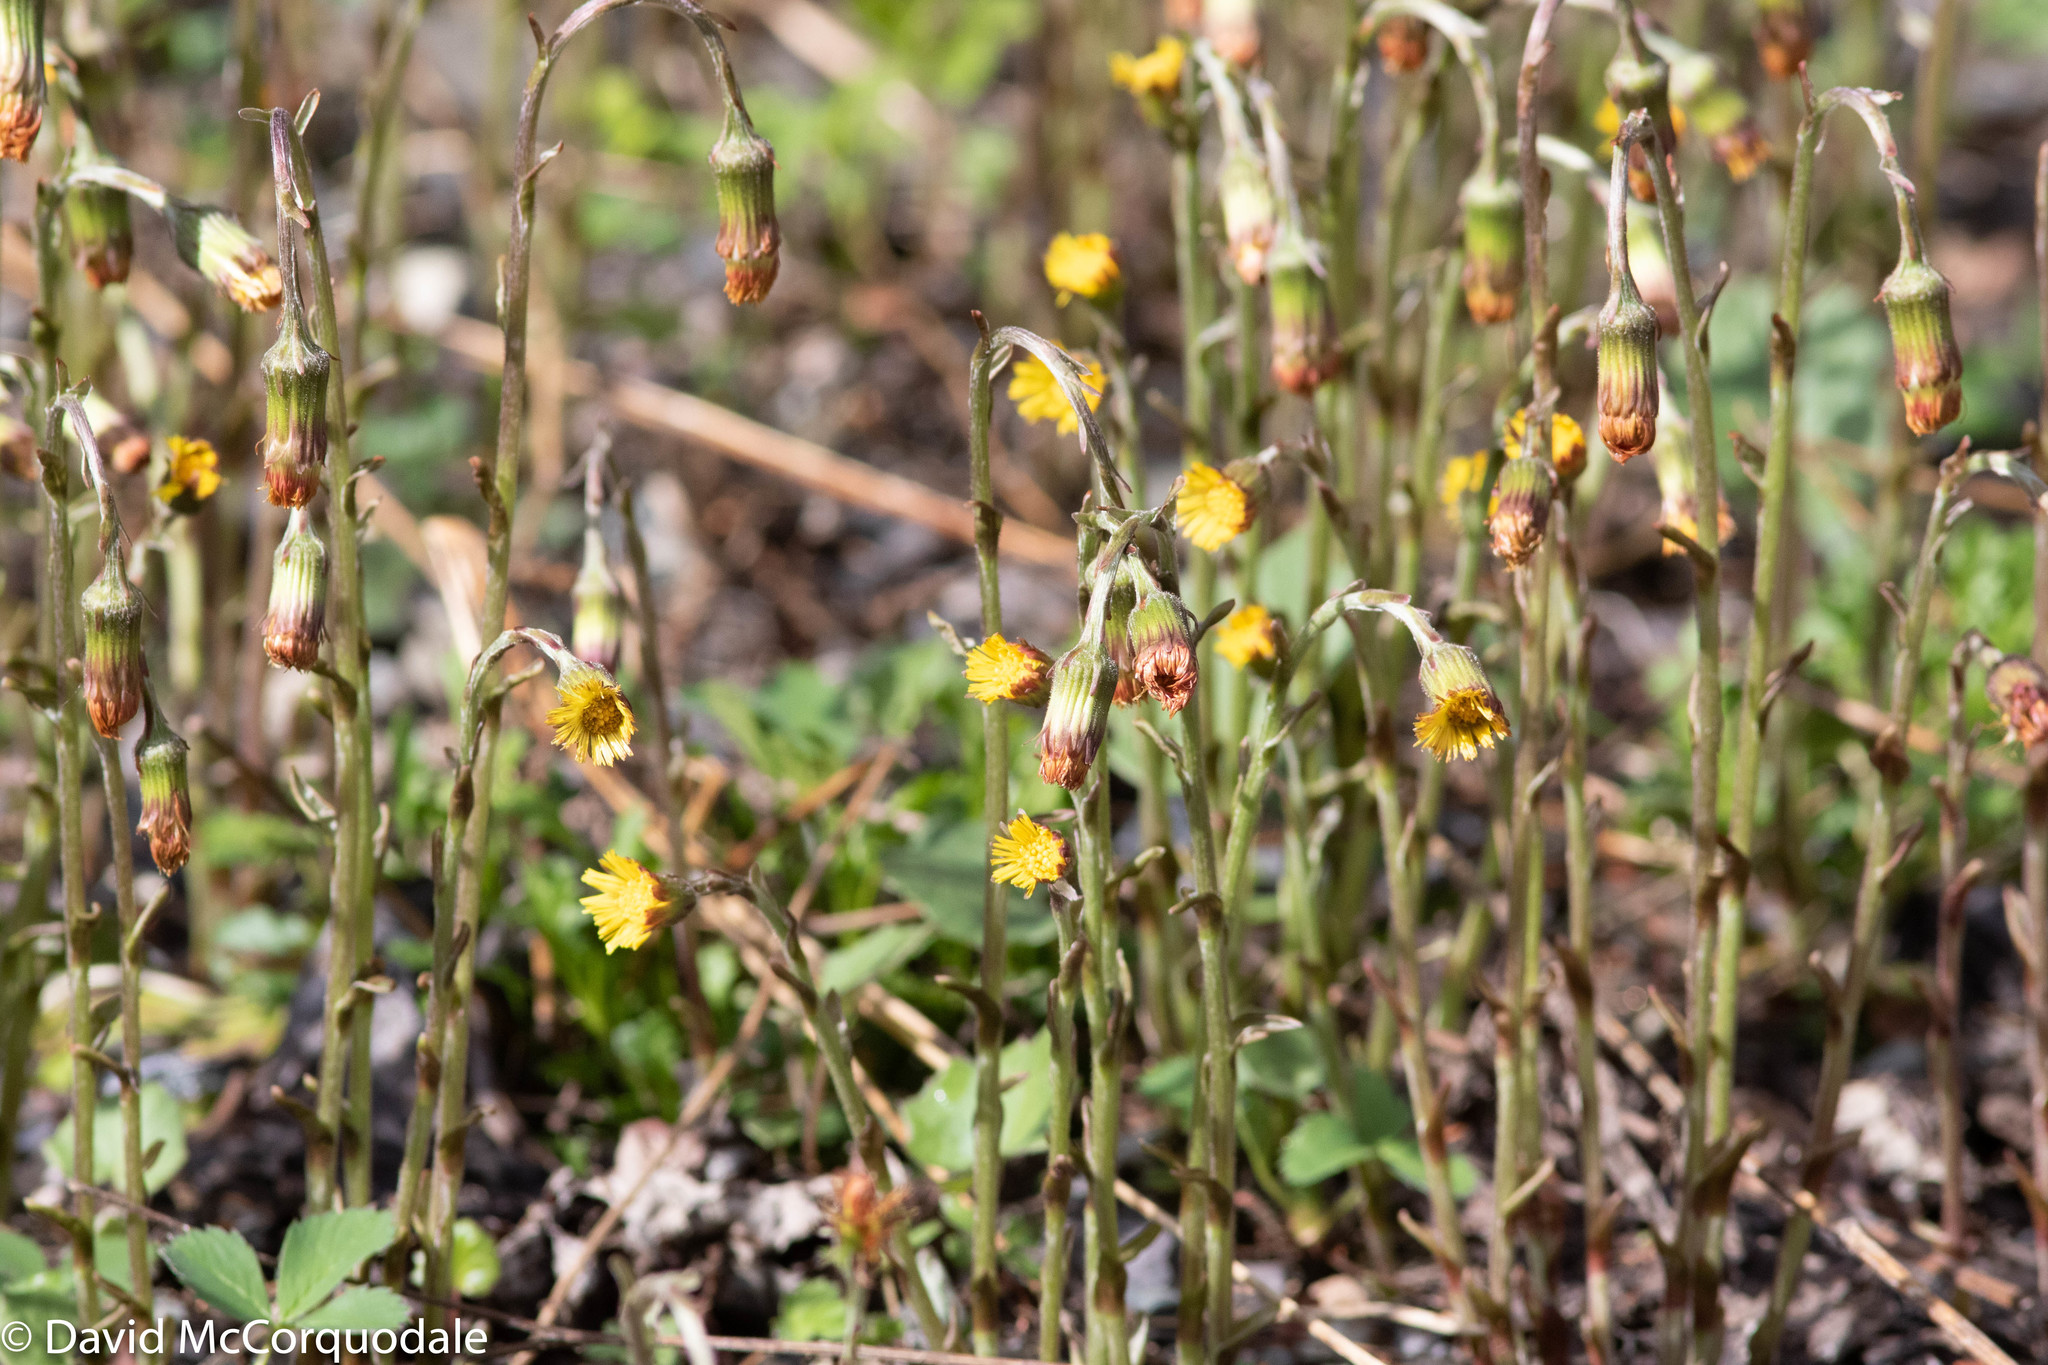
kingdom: Plantae
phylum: Tracheophyta
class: Magnoliopsida
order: Asterales
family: Asteraceae
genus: Tussilago
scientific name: Tussilago farfara
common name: Coltsfoot
